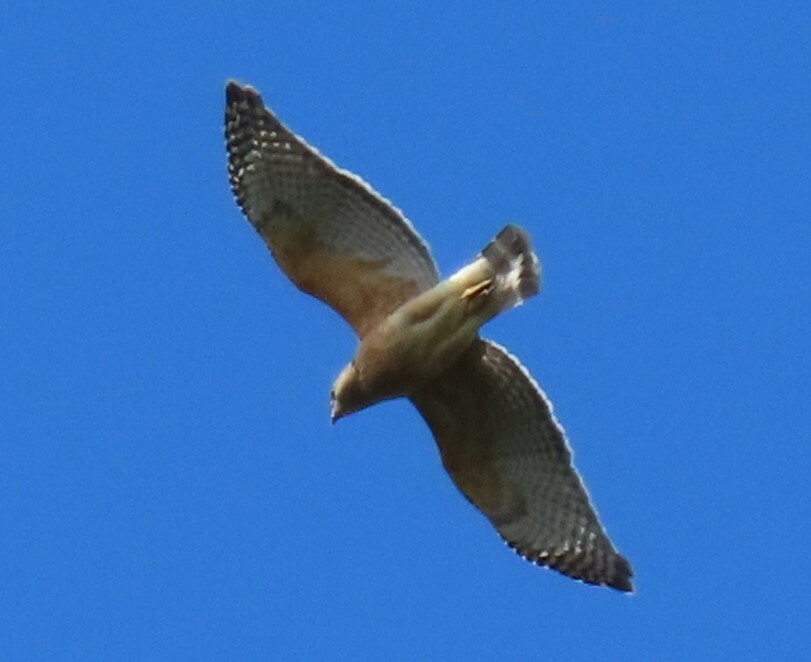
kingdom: Animalia
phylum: Chordata
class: Aves
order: Accipitriformes
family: Accipitridae
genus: Buteo
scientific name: Buteo lineatus
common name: Red-shouldered hawk
